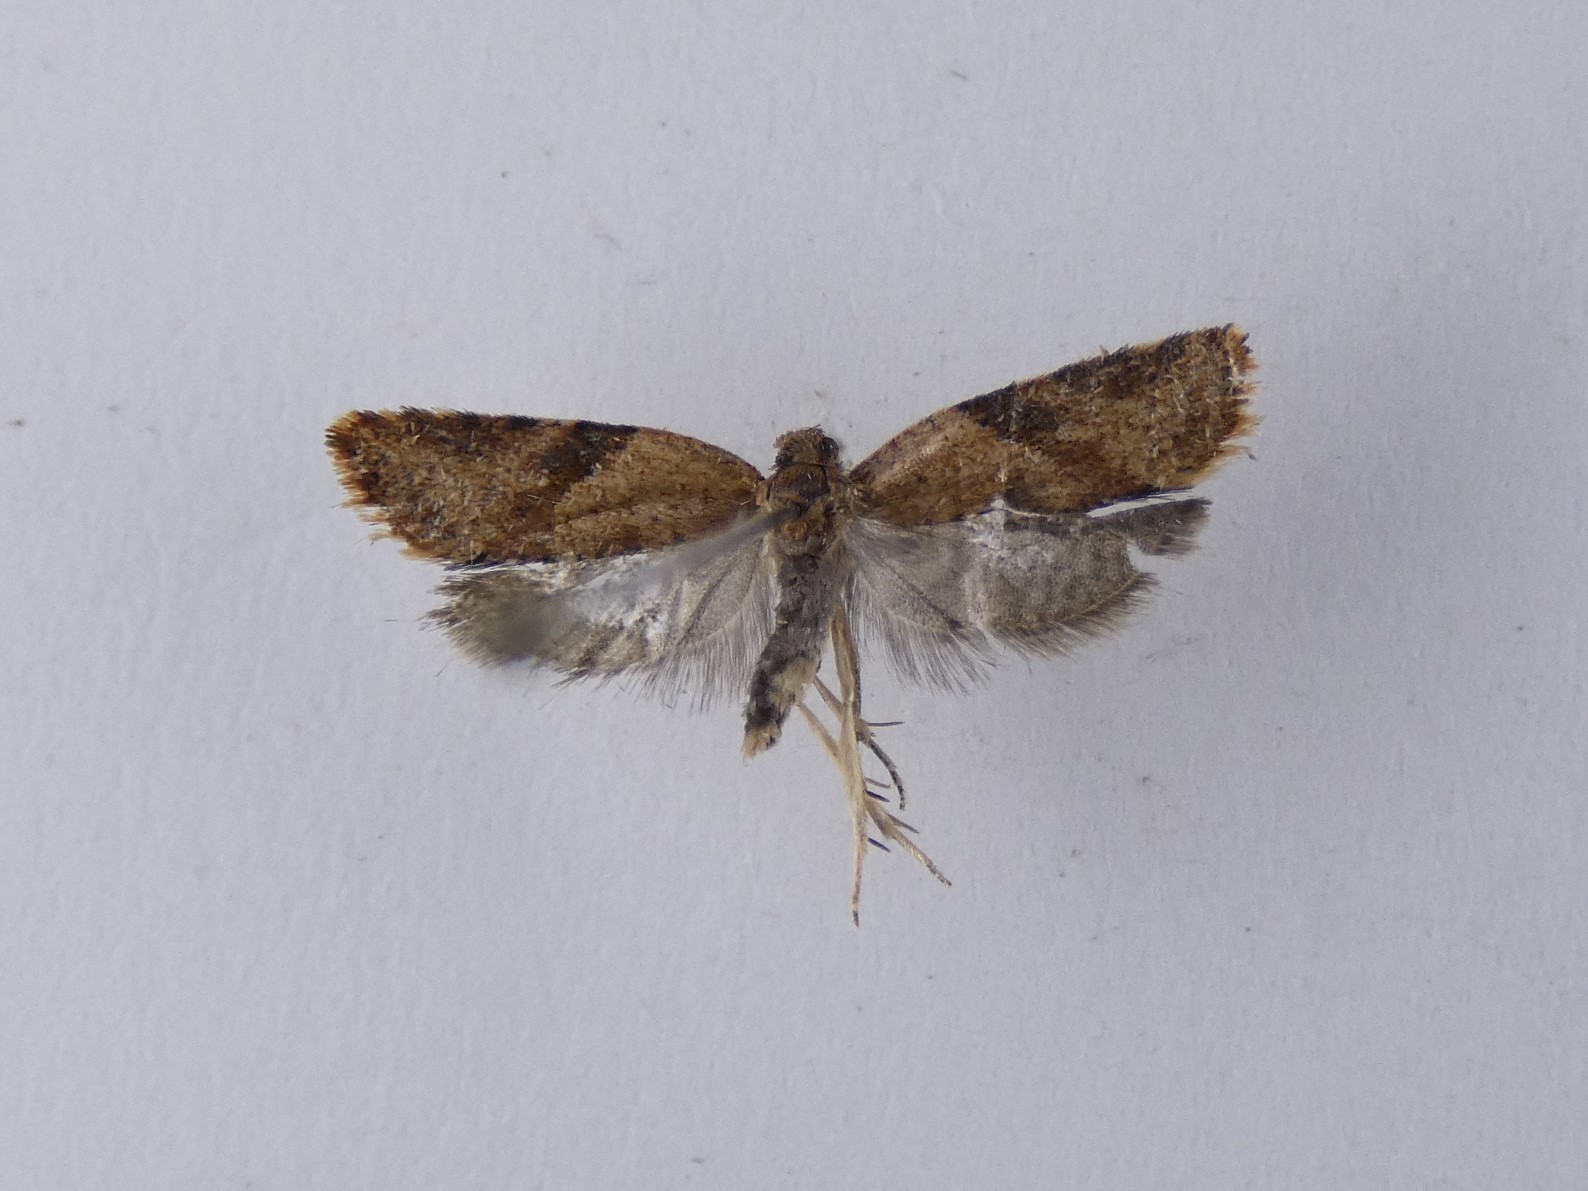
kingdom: Animalia
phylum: Arthropoda
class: Insecta
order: Lepidoptera
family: Tortricidae
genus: Capua
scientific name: Capua semiferana
